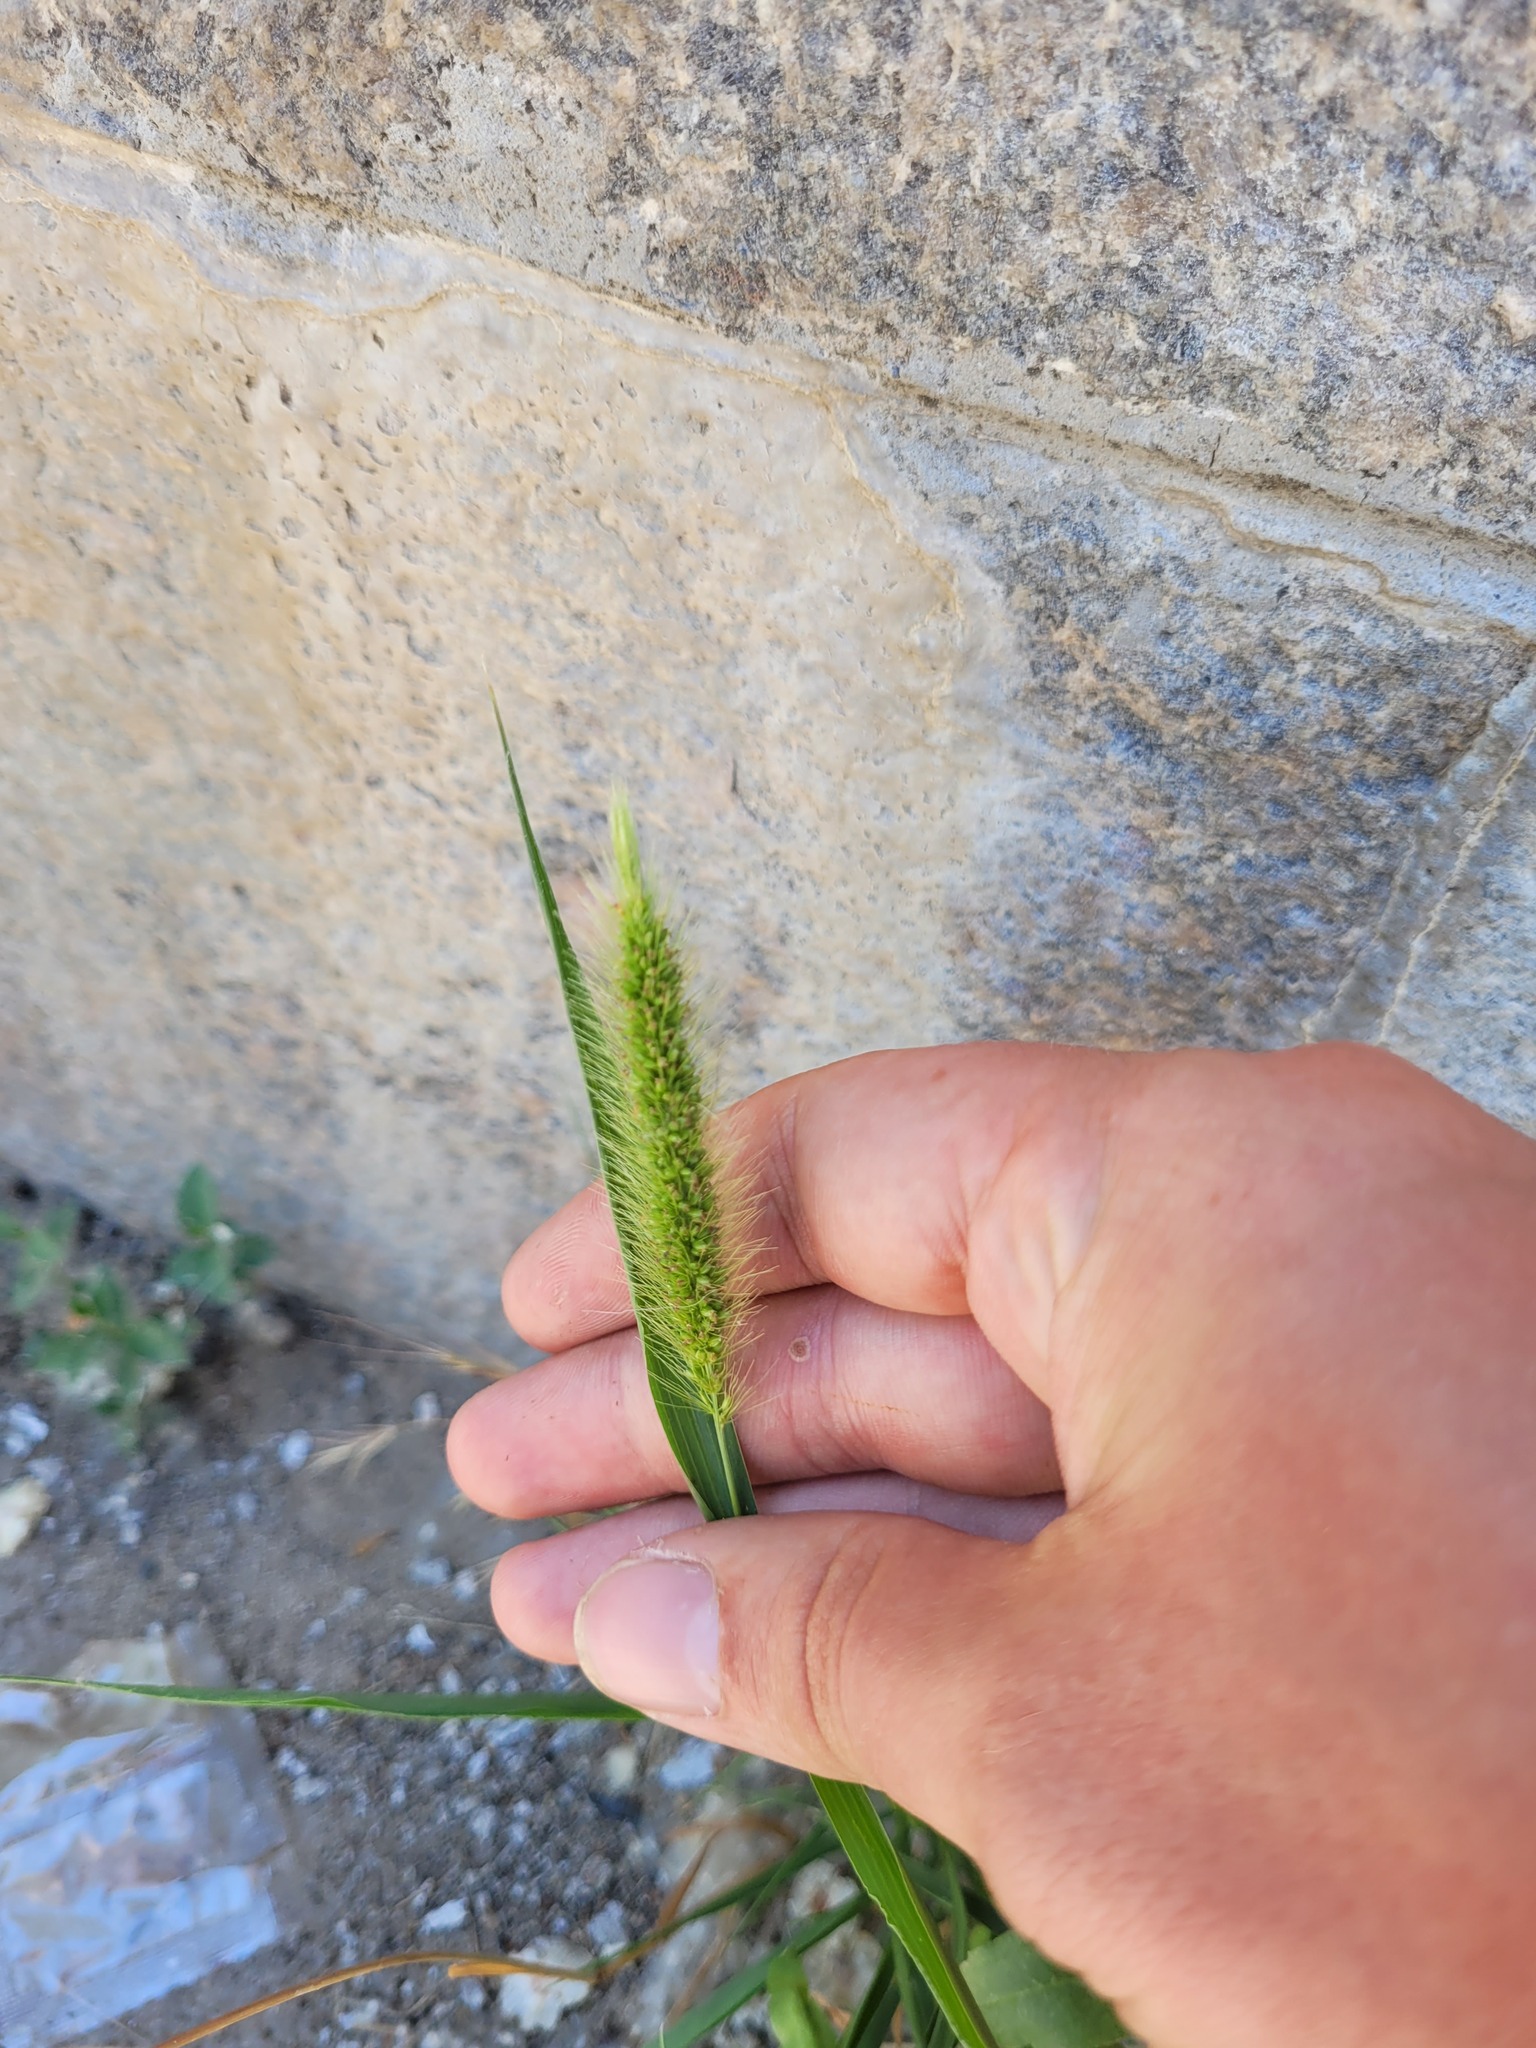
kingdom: Plantae
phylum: Tracheophyta
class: Liliopsida
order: Poales
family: Poaceae
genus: Setaria
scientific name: Setaria viridis
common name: Green bristlegrass
